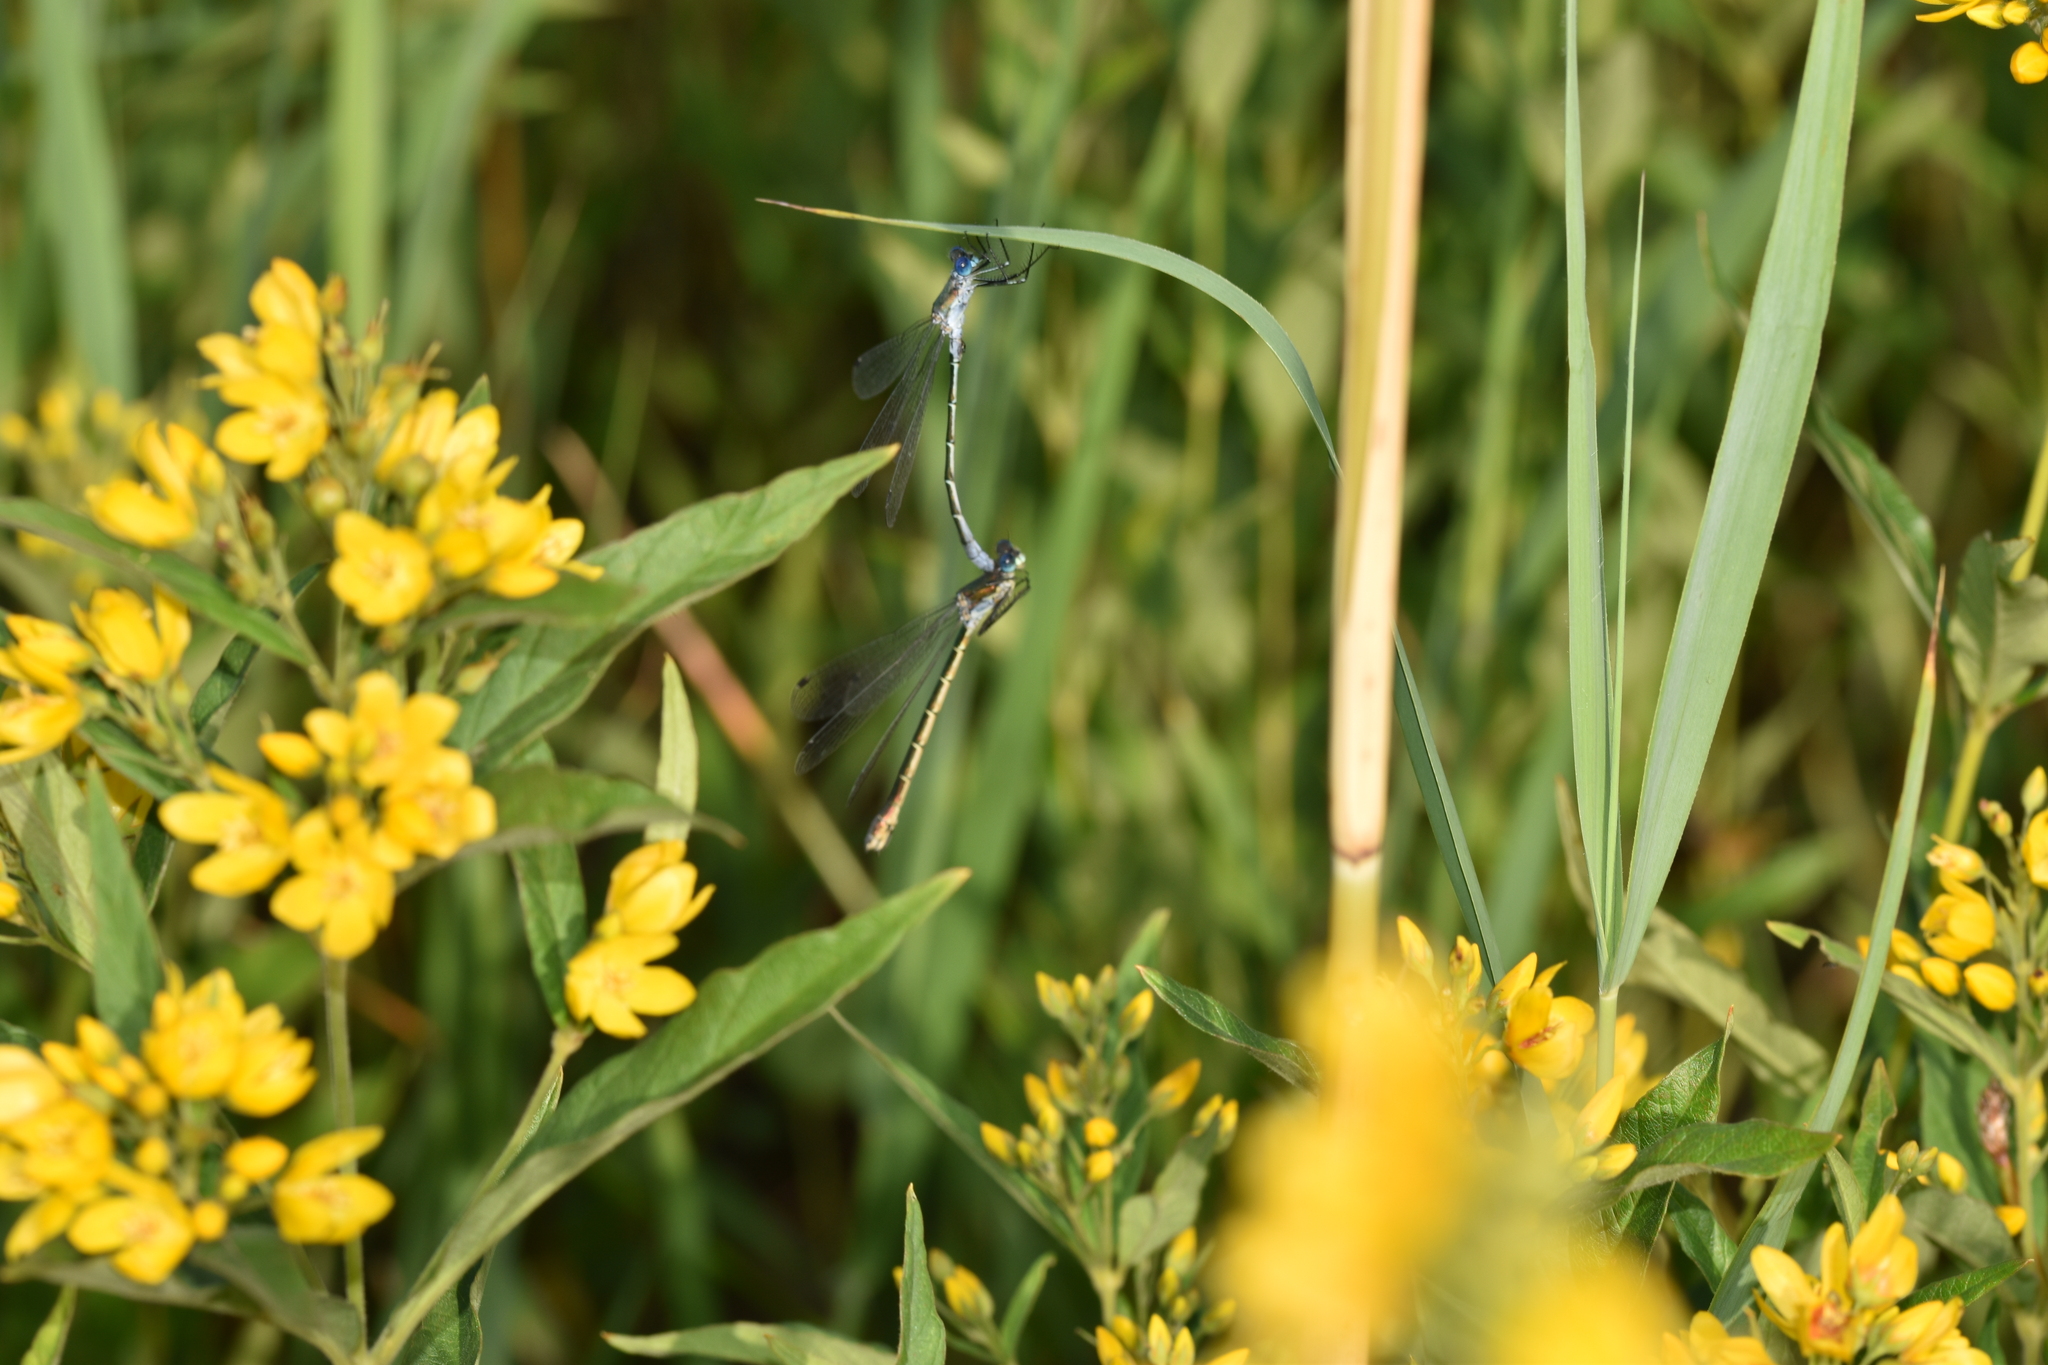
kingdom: Animalia
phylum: Arthropoda
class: Insecta
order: Odonata
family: Lestidae
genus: Lestes
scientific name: Lestes dryas
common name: Scarce emerald damselfly
